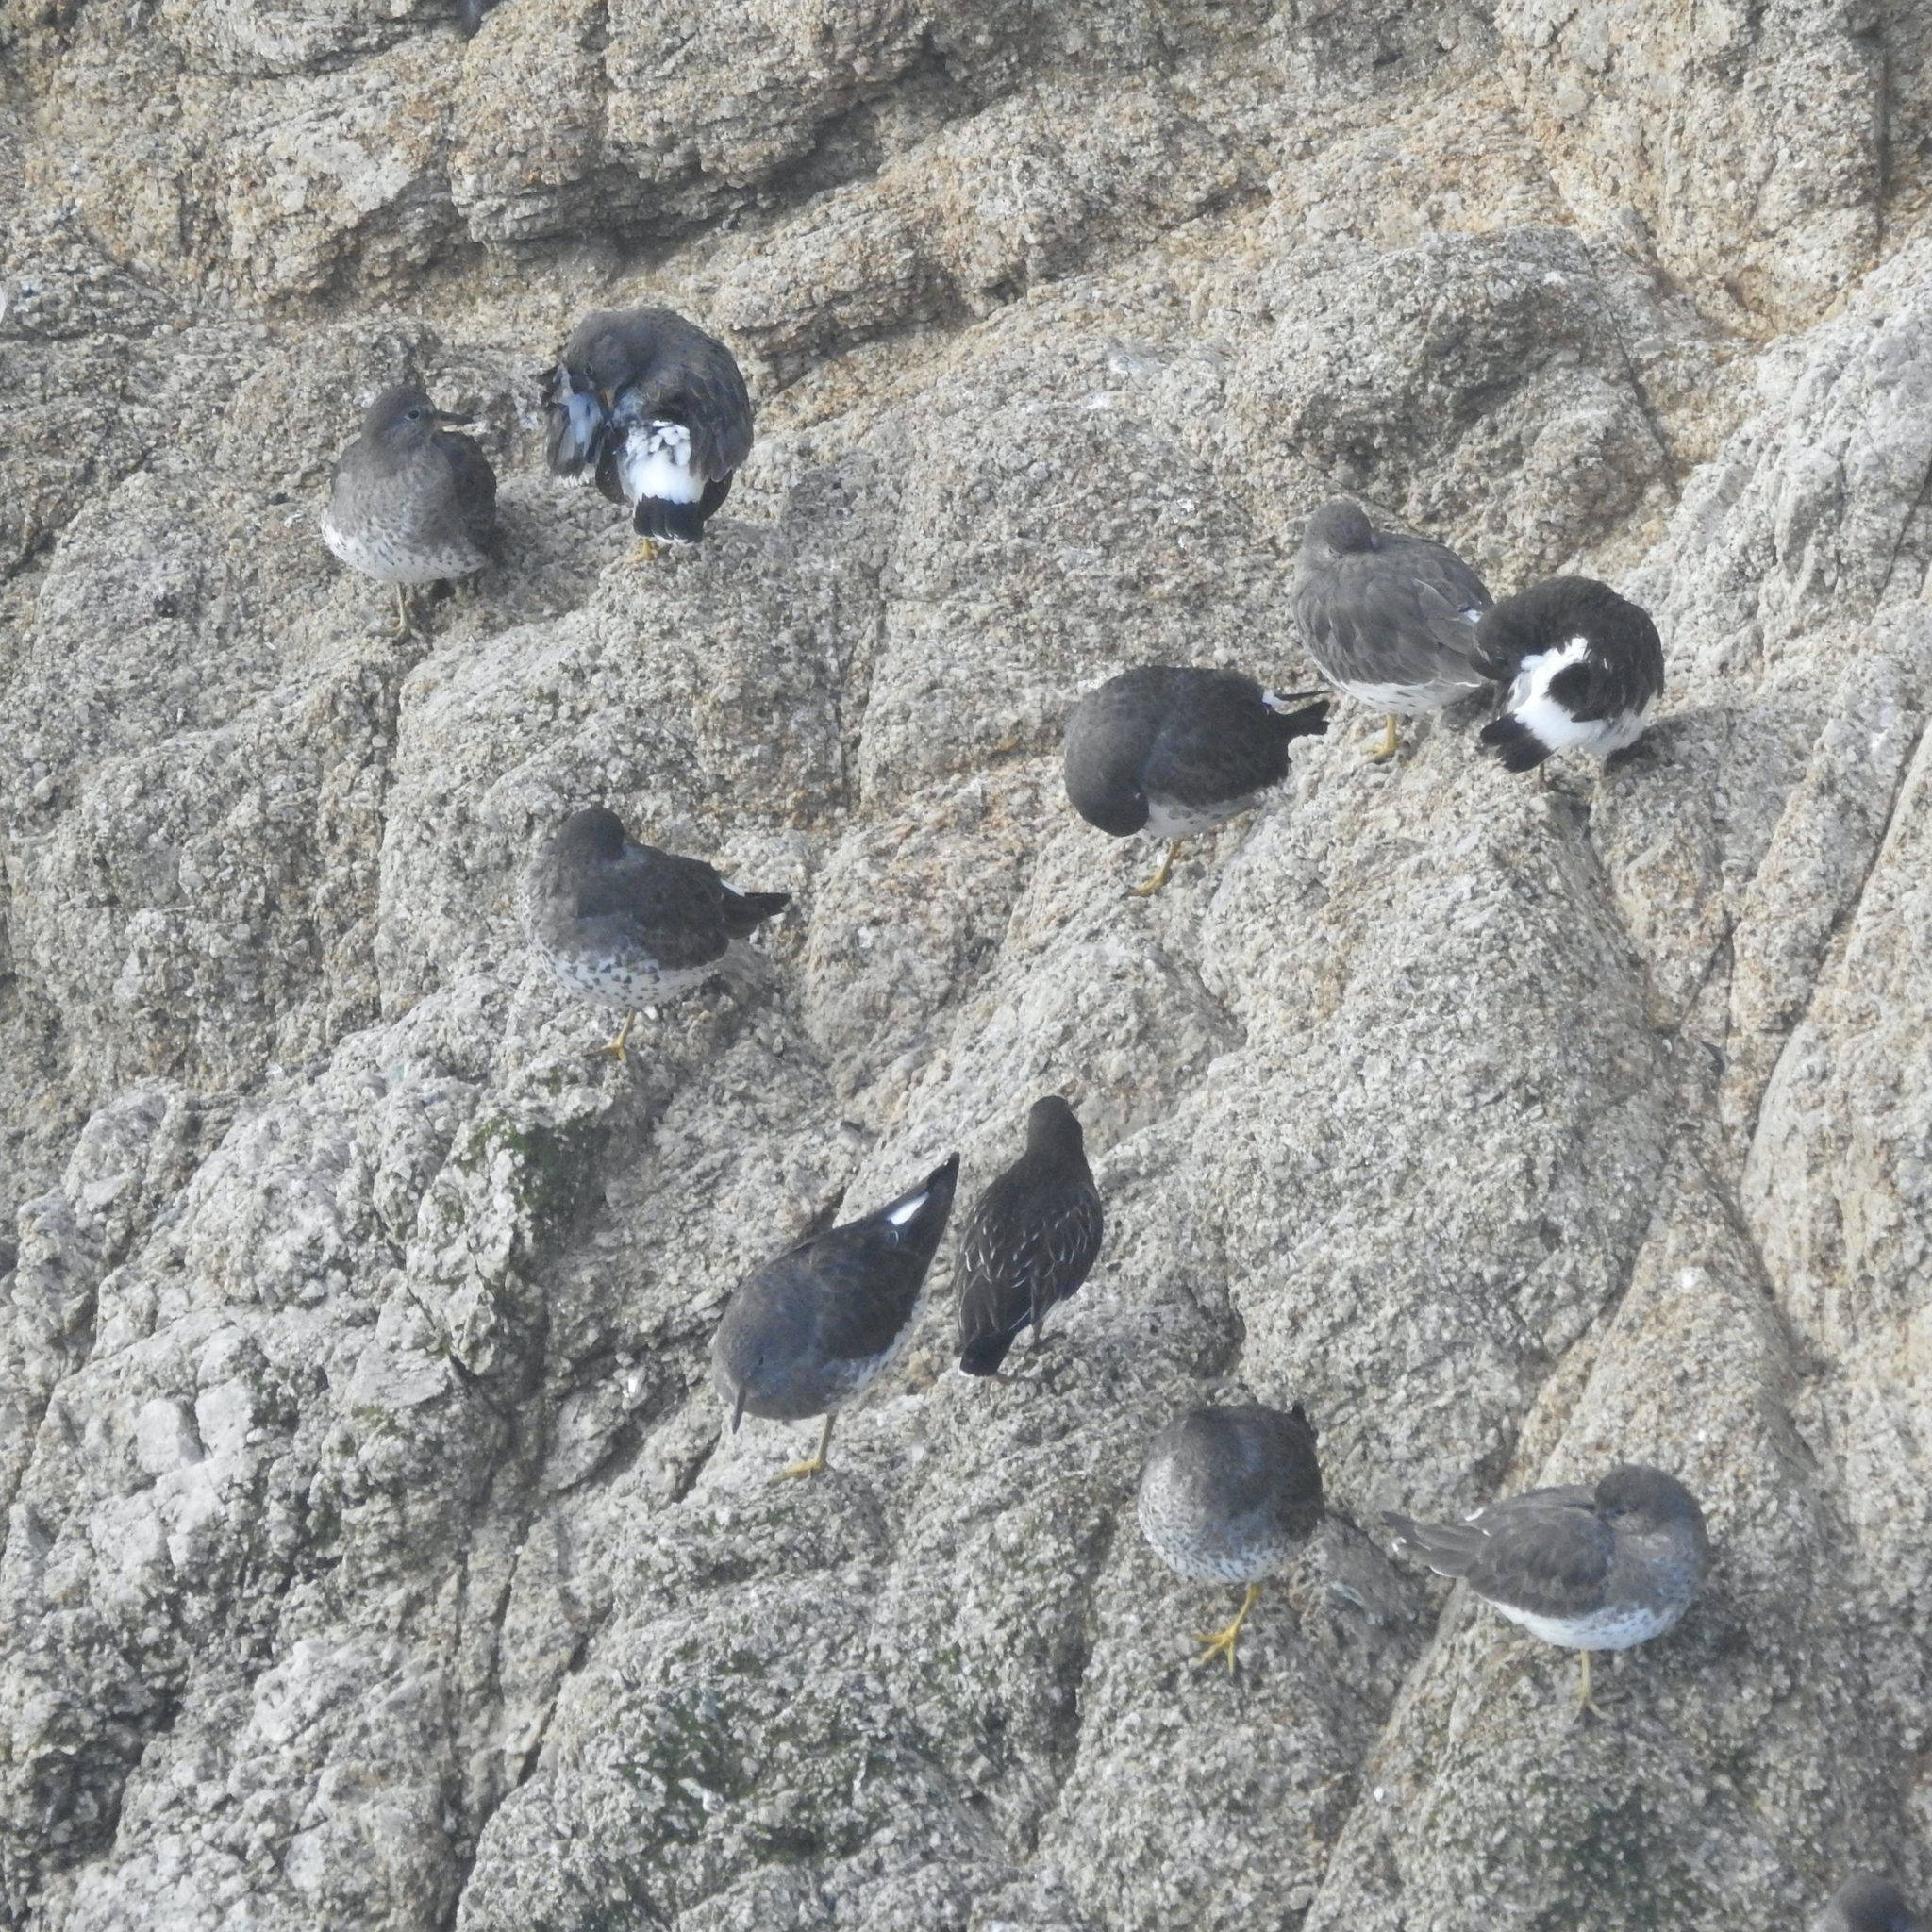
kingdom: Animalia
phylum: Chordata
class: Aves
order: Charadriiformes
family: Scolopacidae
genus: Arenaria
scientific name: Arenaria melanocephala
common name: Black turnstone
